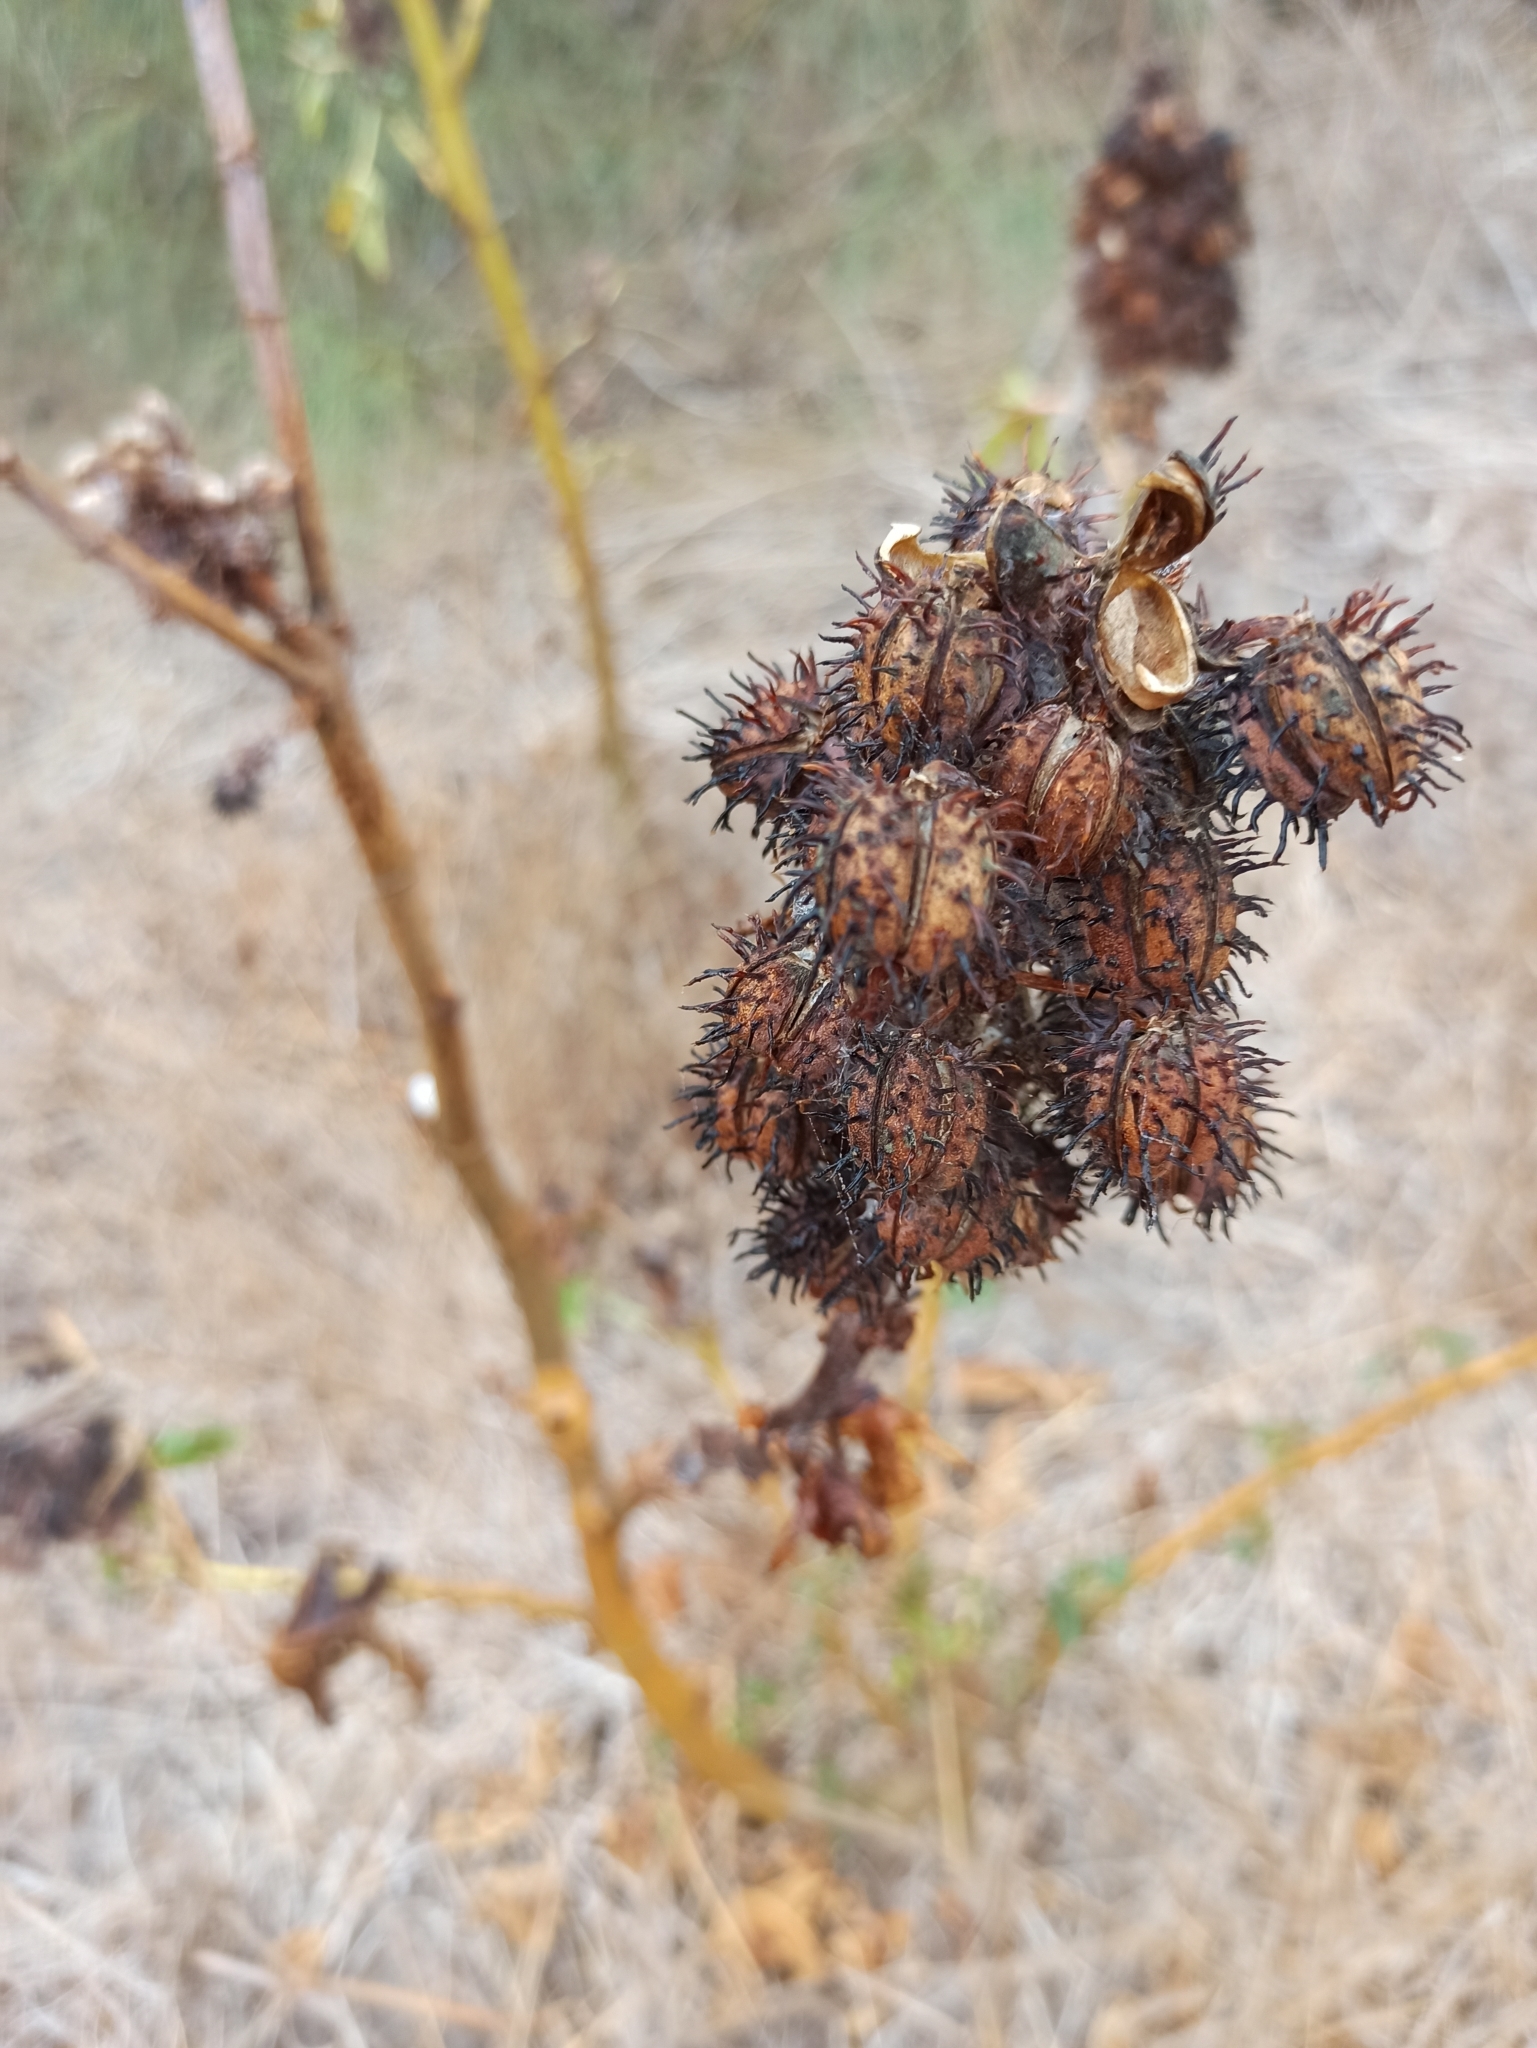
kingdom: Plantae
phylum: Tracheophyta
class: Magnoliopsida
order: Malpighiales
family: Euphorbiaceae
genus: Ricinus
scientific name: Ricinus communis
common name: Castor-oil-plant
